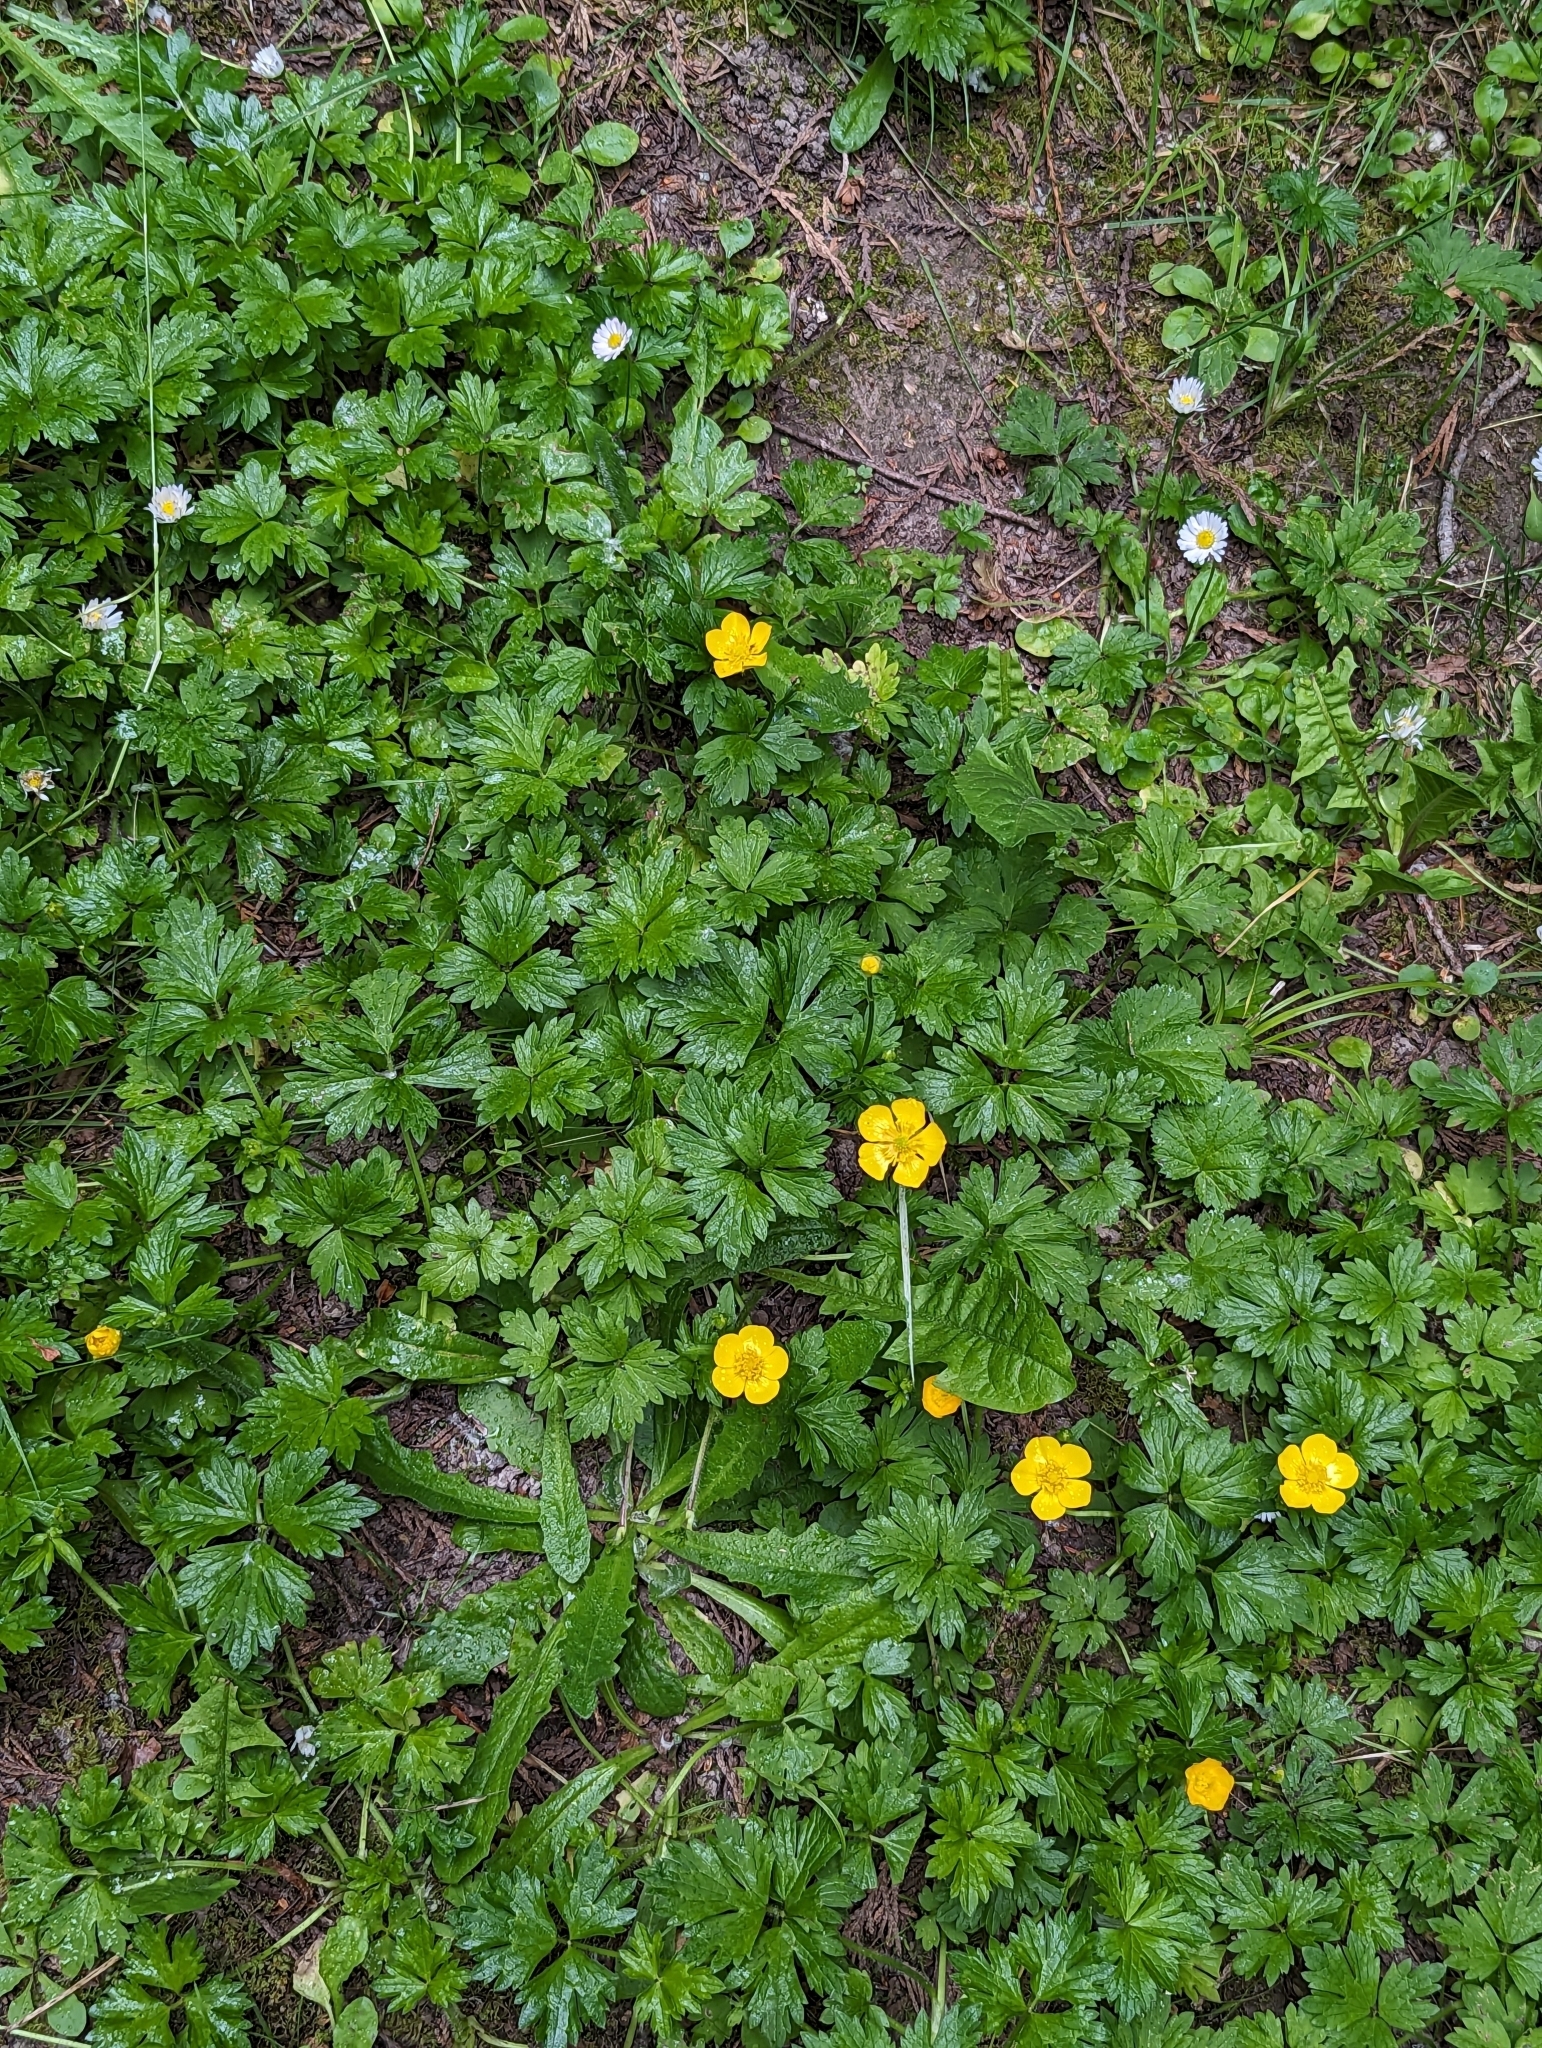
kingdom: Plantae
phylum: Tracheophyta
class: Magnoliopsida
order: Ranunculales
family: Ranunculaceae
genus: Ranunculus
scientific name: Ranunculus repens
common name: Creeping buttercup
